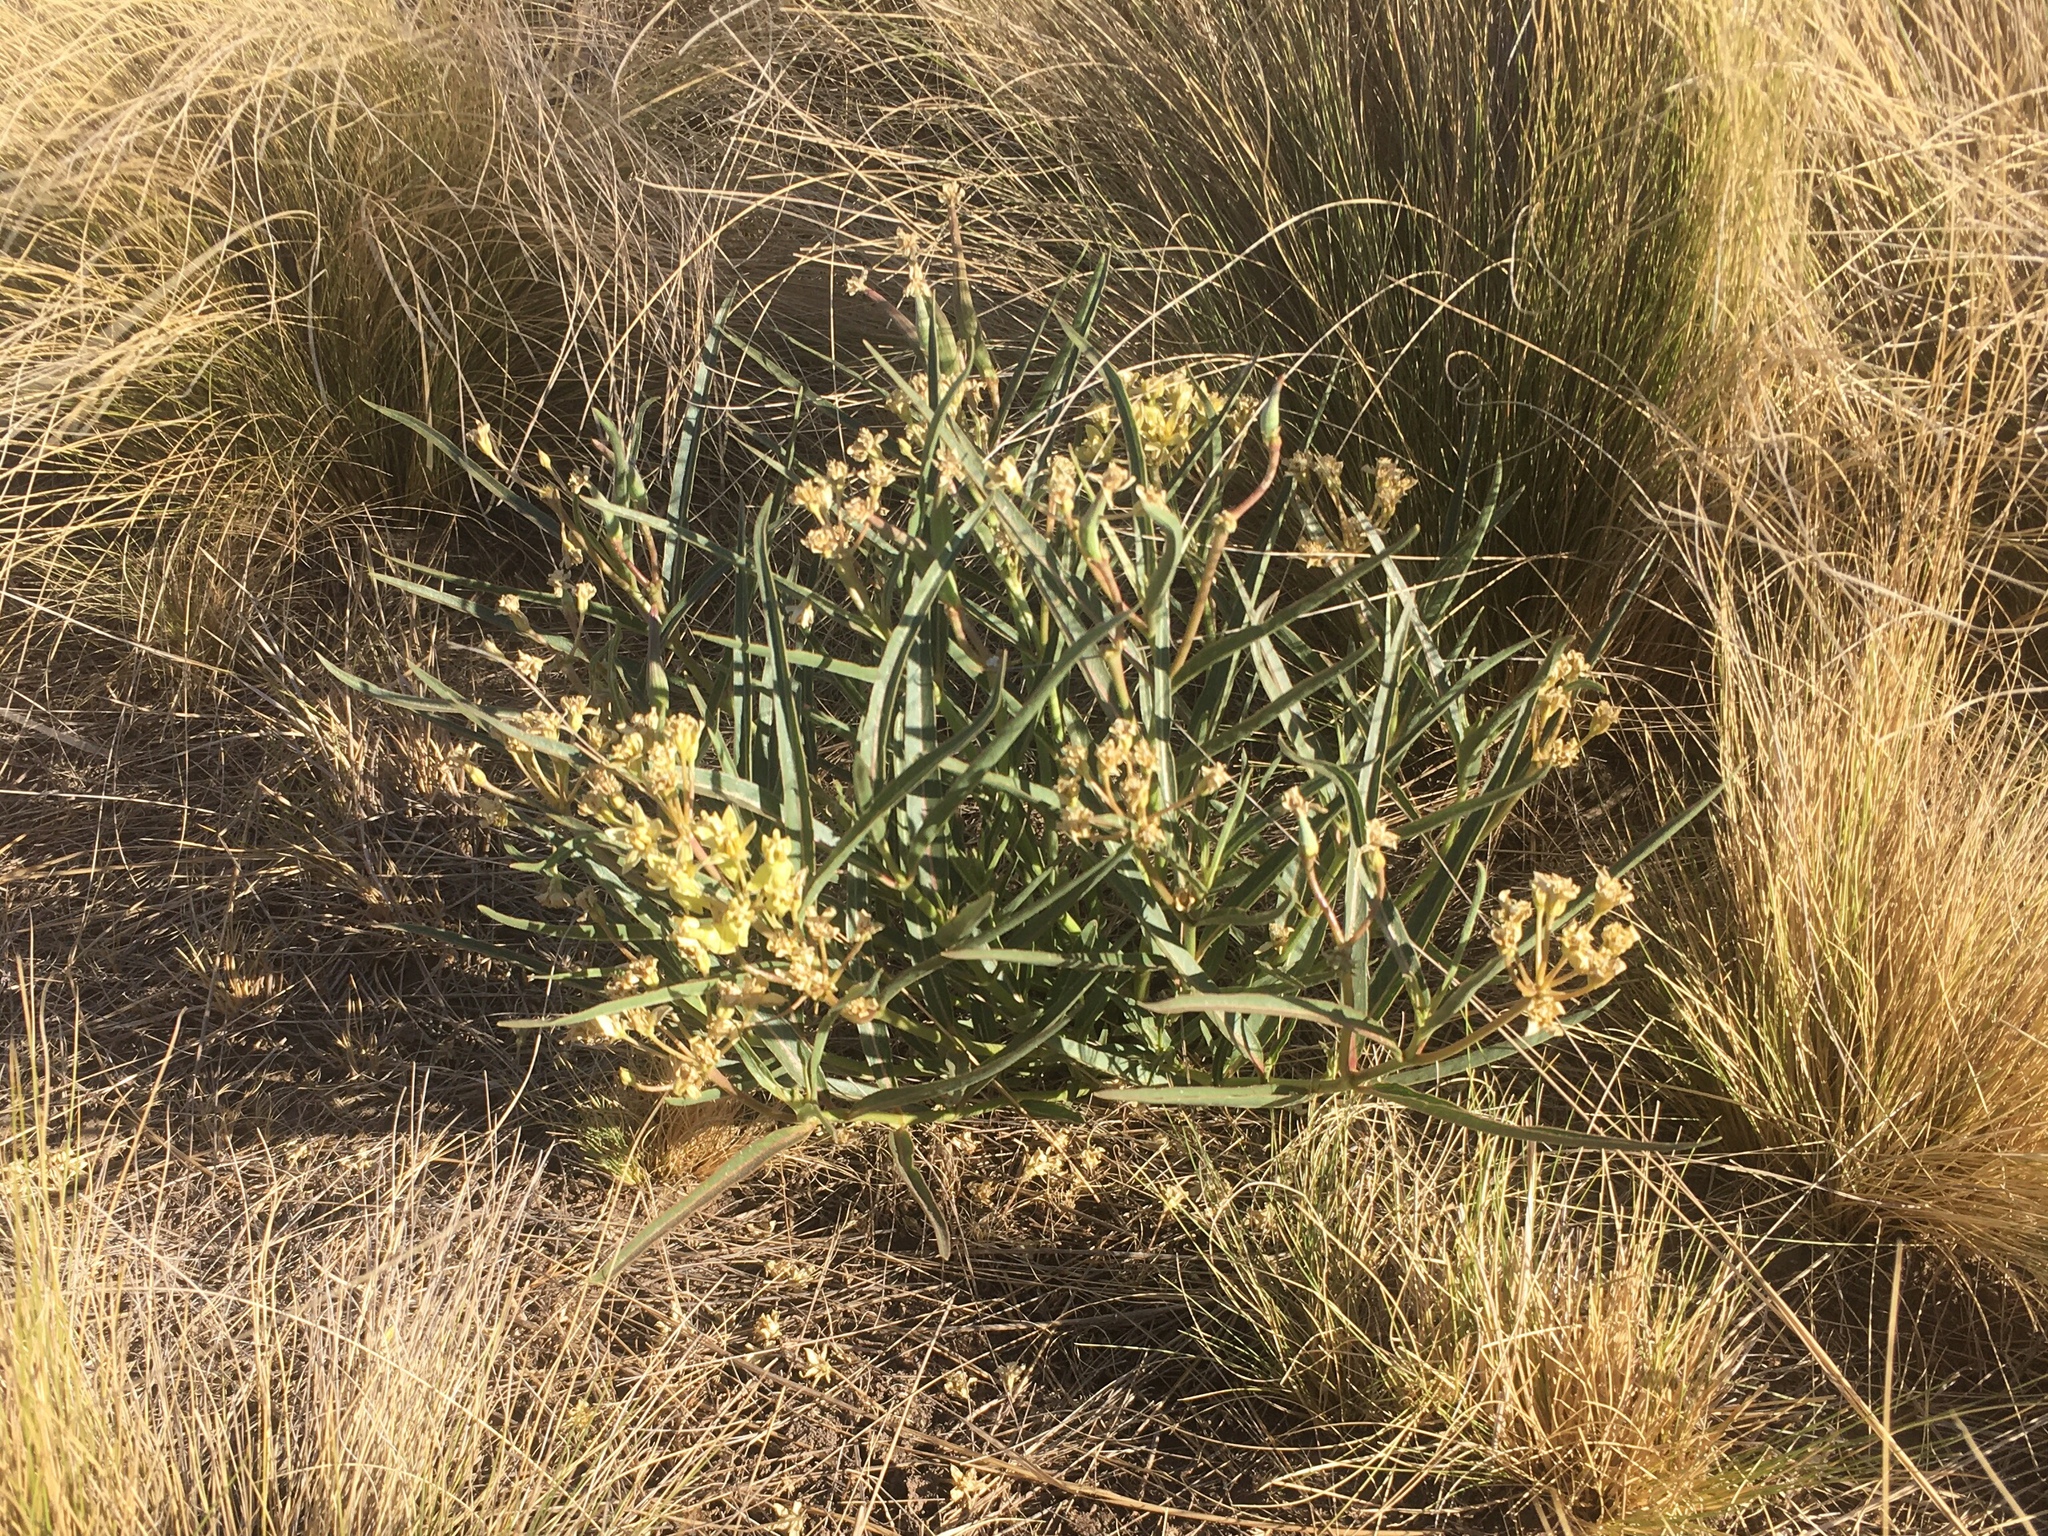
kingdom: Plantae
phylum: Tracheophyta
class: Magnoliopsida
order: Gentianales
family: Apocynaceae
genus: Asclepias
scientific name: Asclepias mellodora
